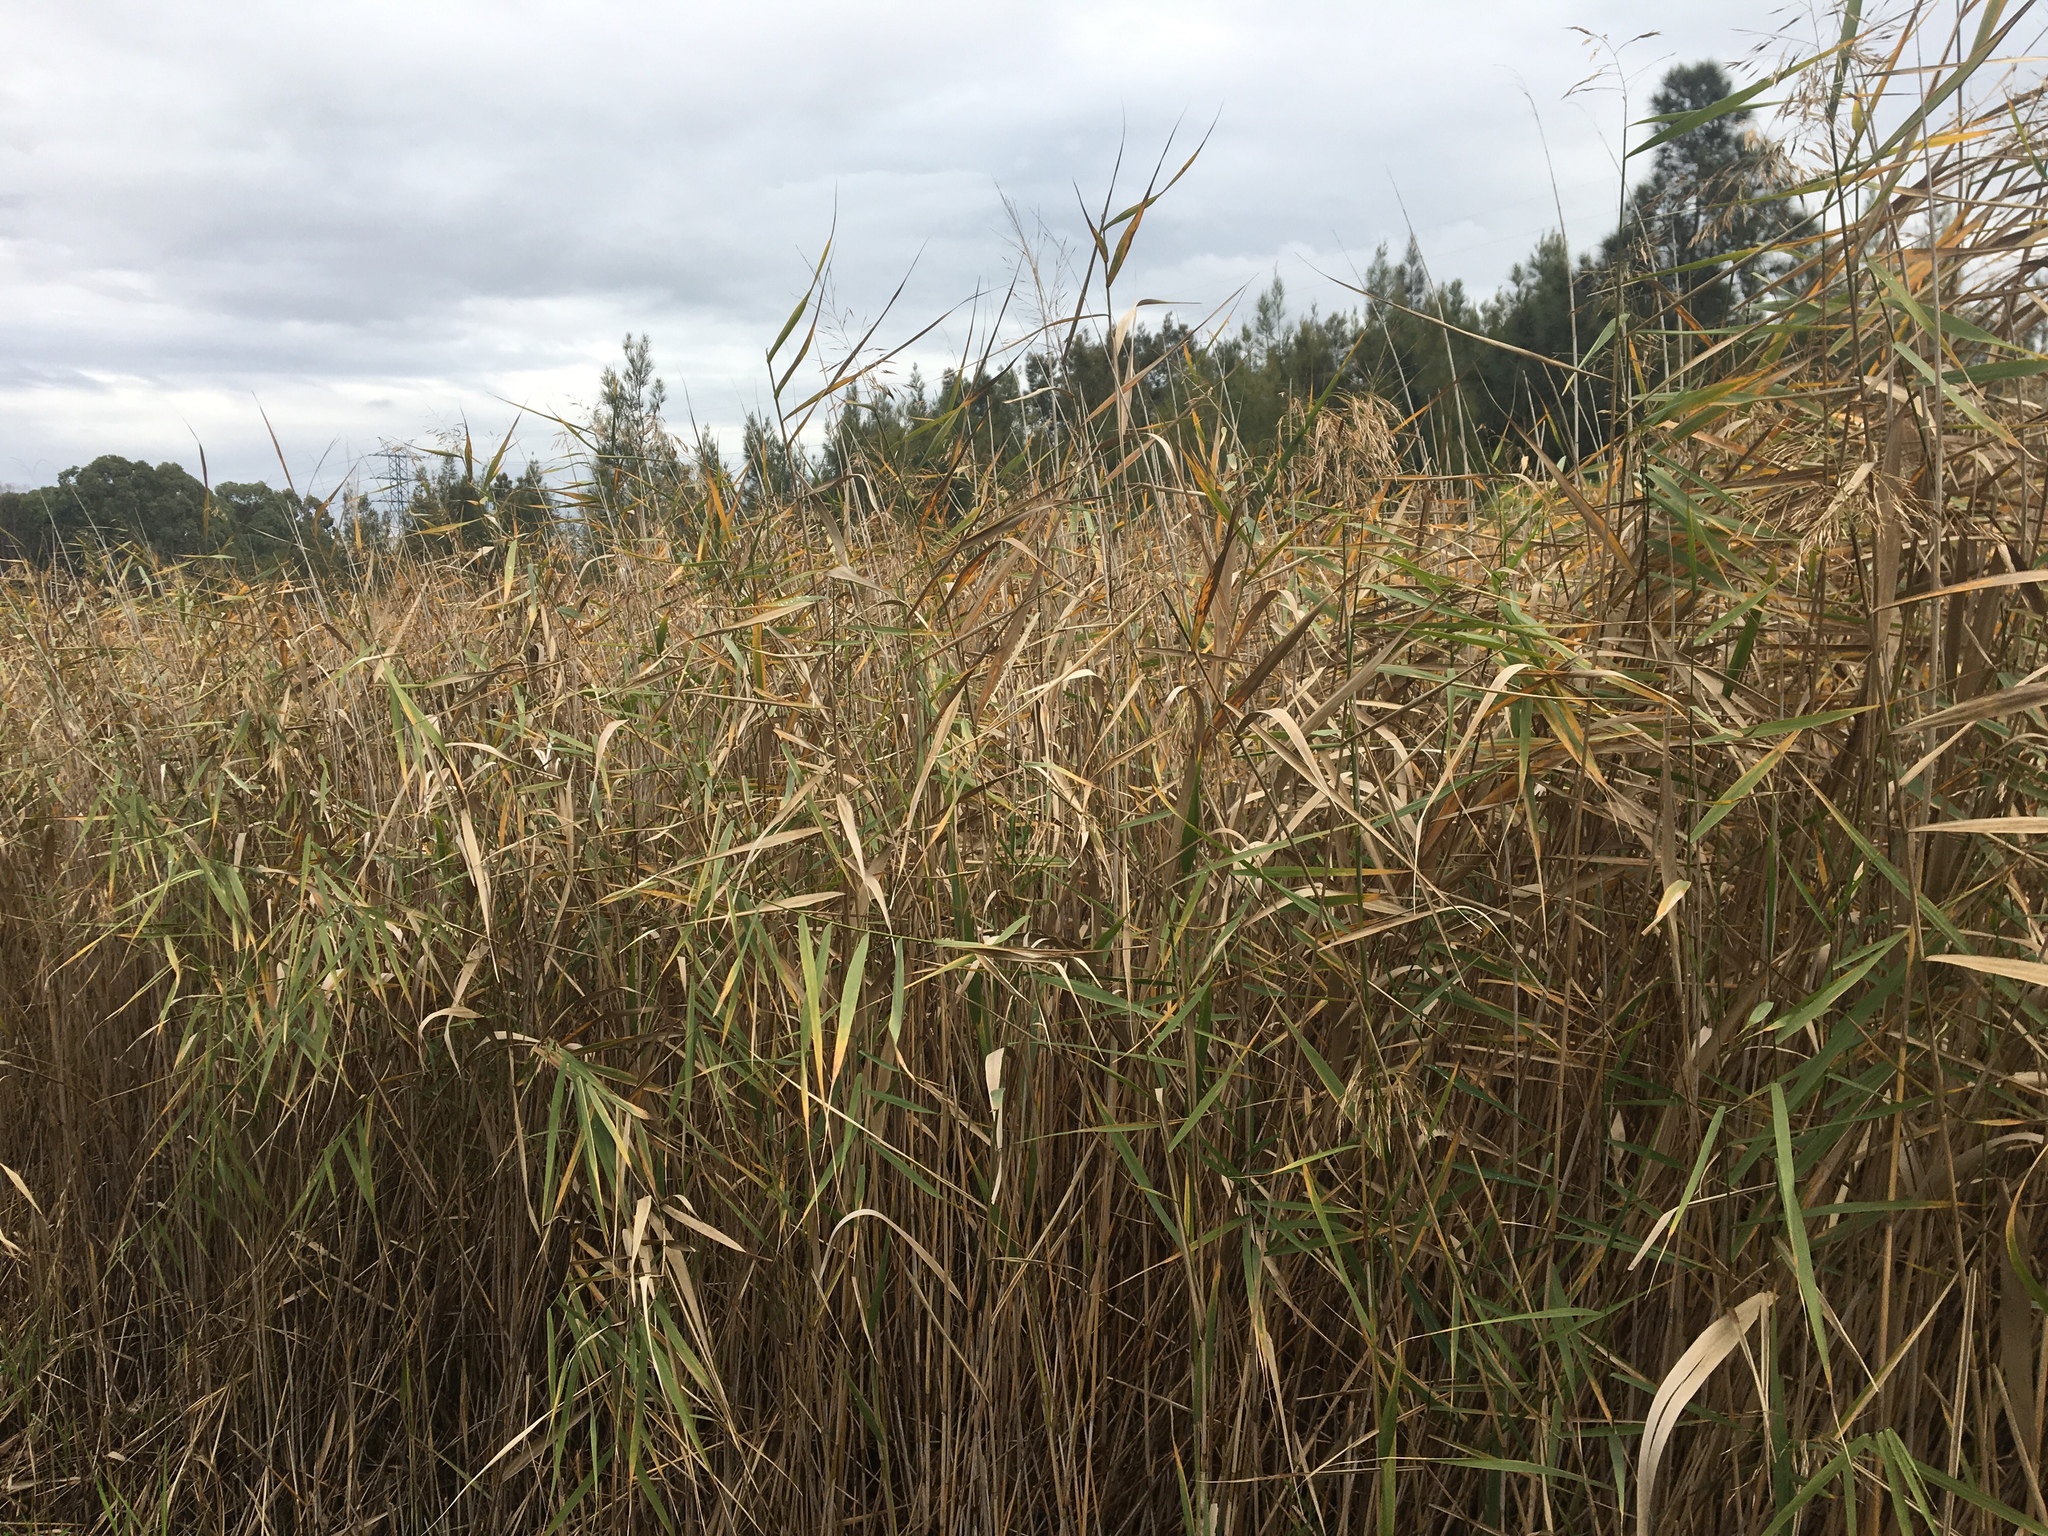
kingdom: Plantae
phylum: Tracheophyta
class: Liliopsida
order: Poales
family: Poaceae
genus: Phragmites
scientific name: Phragmites australis
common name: Common reed
